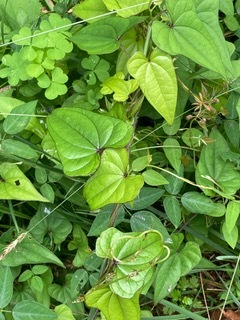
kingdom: Plantae
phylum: Tracheophyta
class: Liliopsida
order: Dioscoreales
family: Dioscoreaceae
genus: Dioscorea
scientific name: Dioscorea polystachya
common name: Chinese yam
